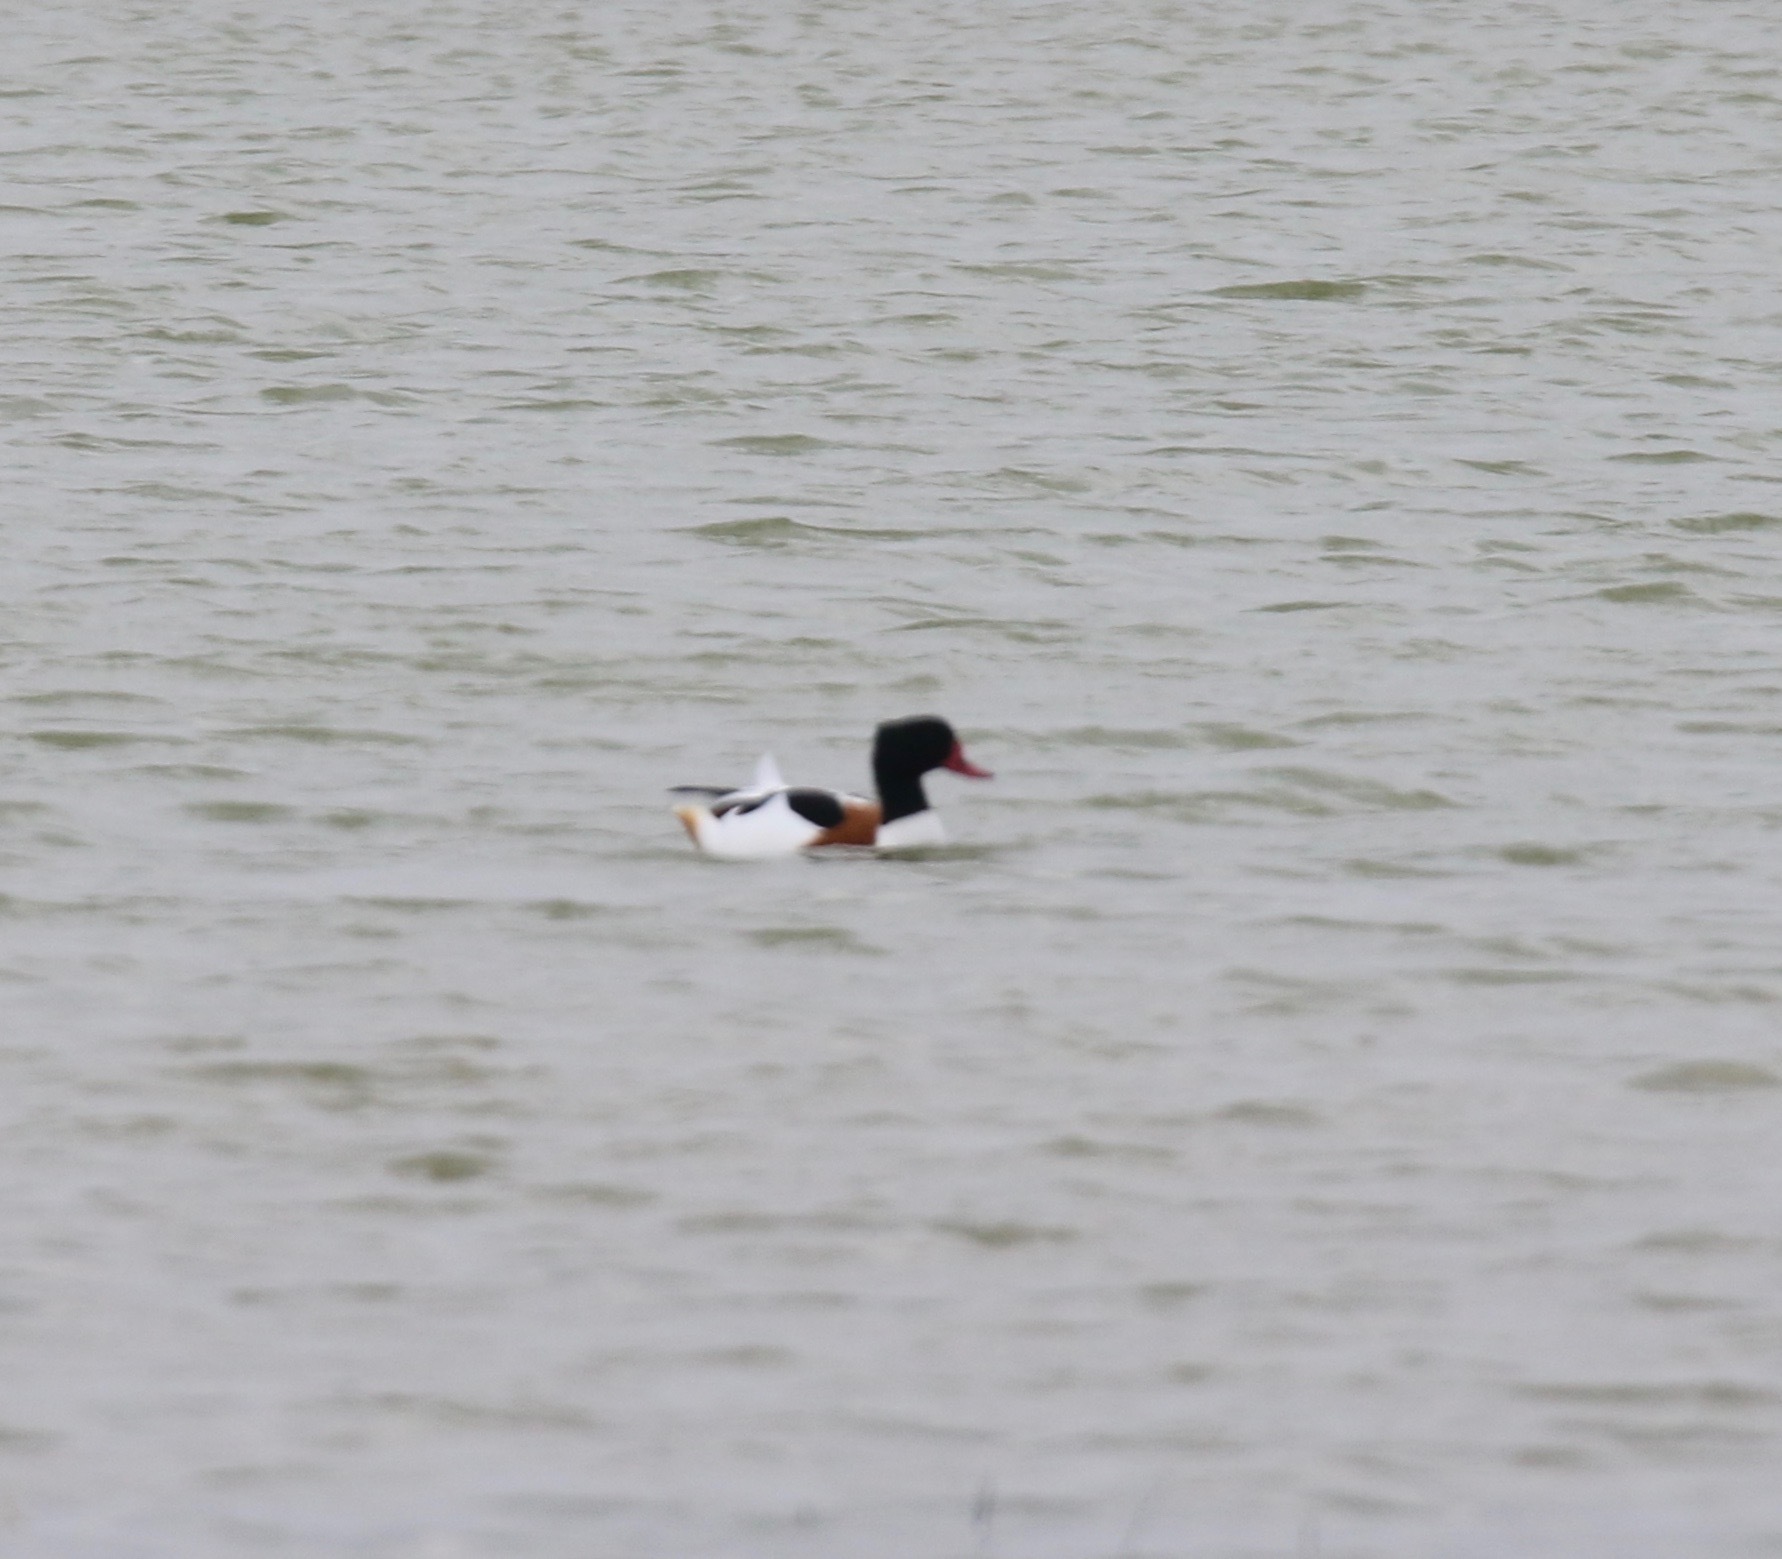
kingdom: Animalia
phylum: Chordata
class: Aves
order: Anseriformes
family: Anatidae
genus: Tadorna
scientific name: Tadorna tadorna
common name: Common shelduck
